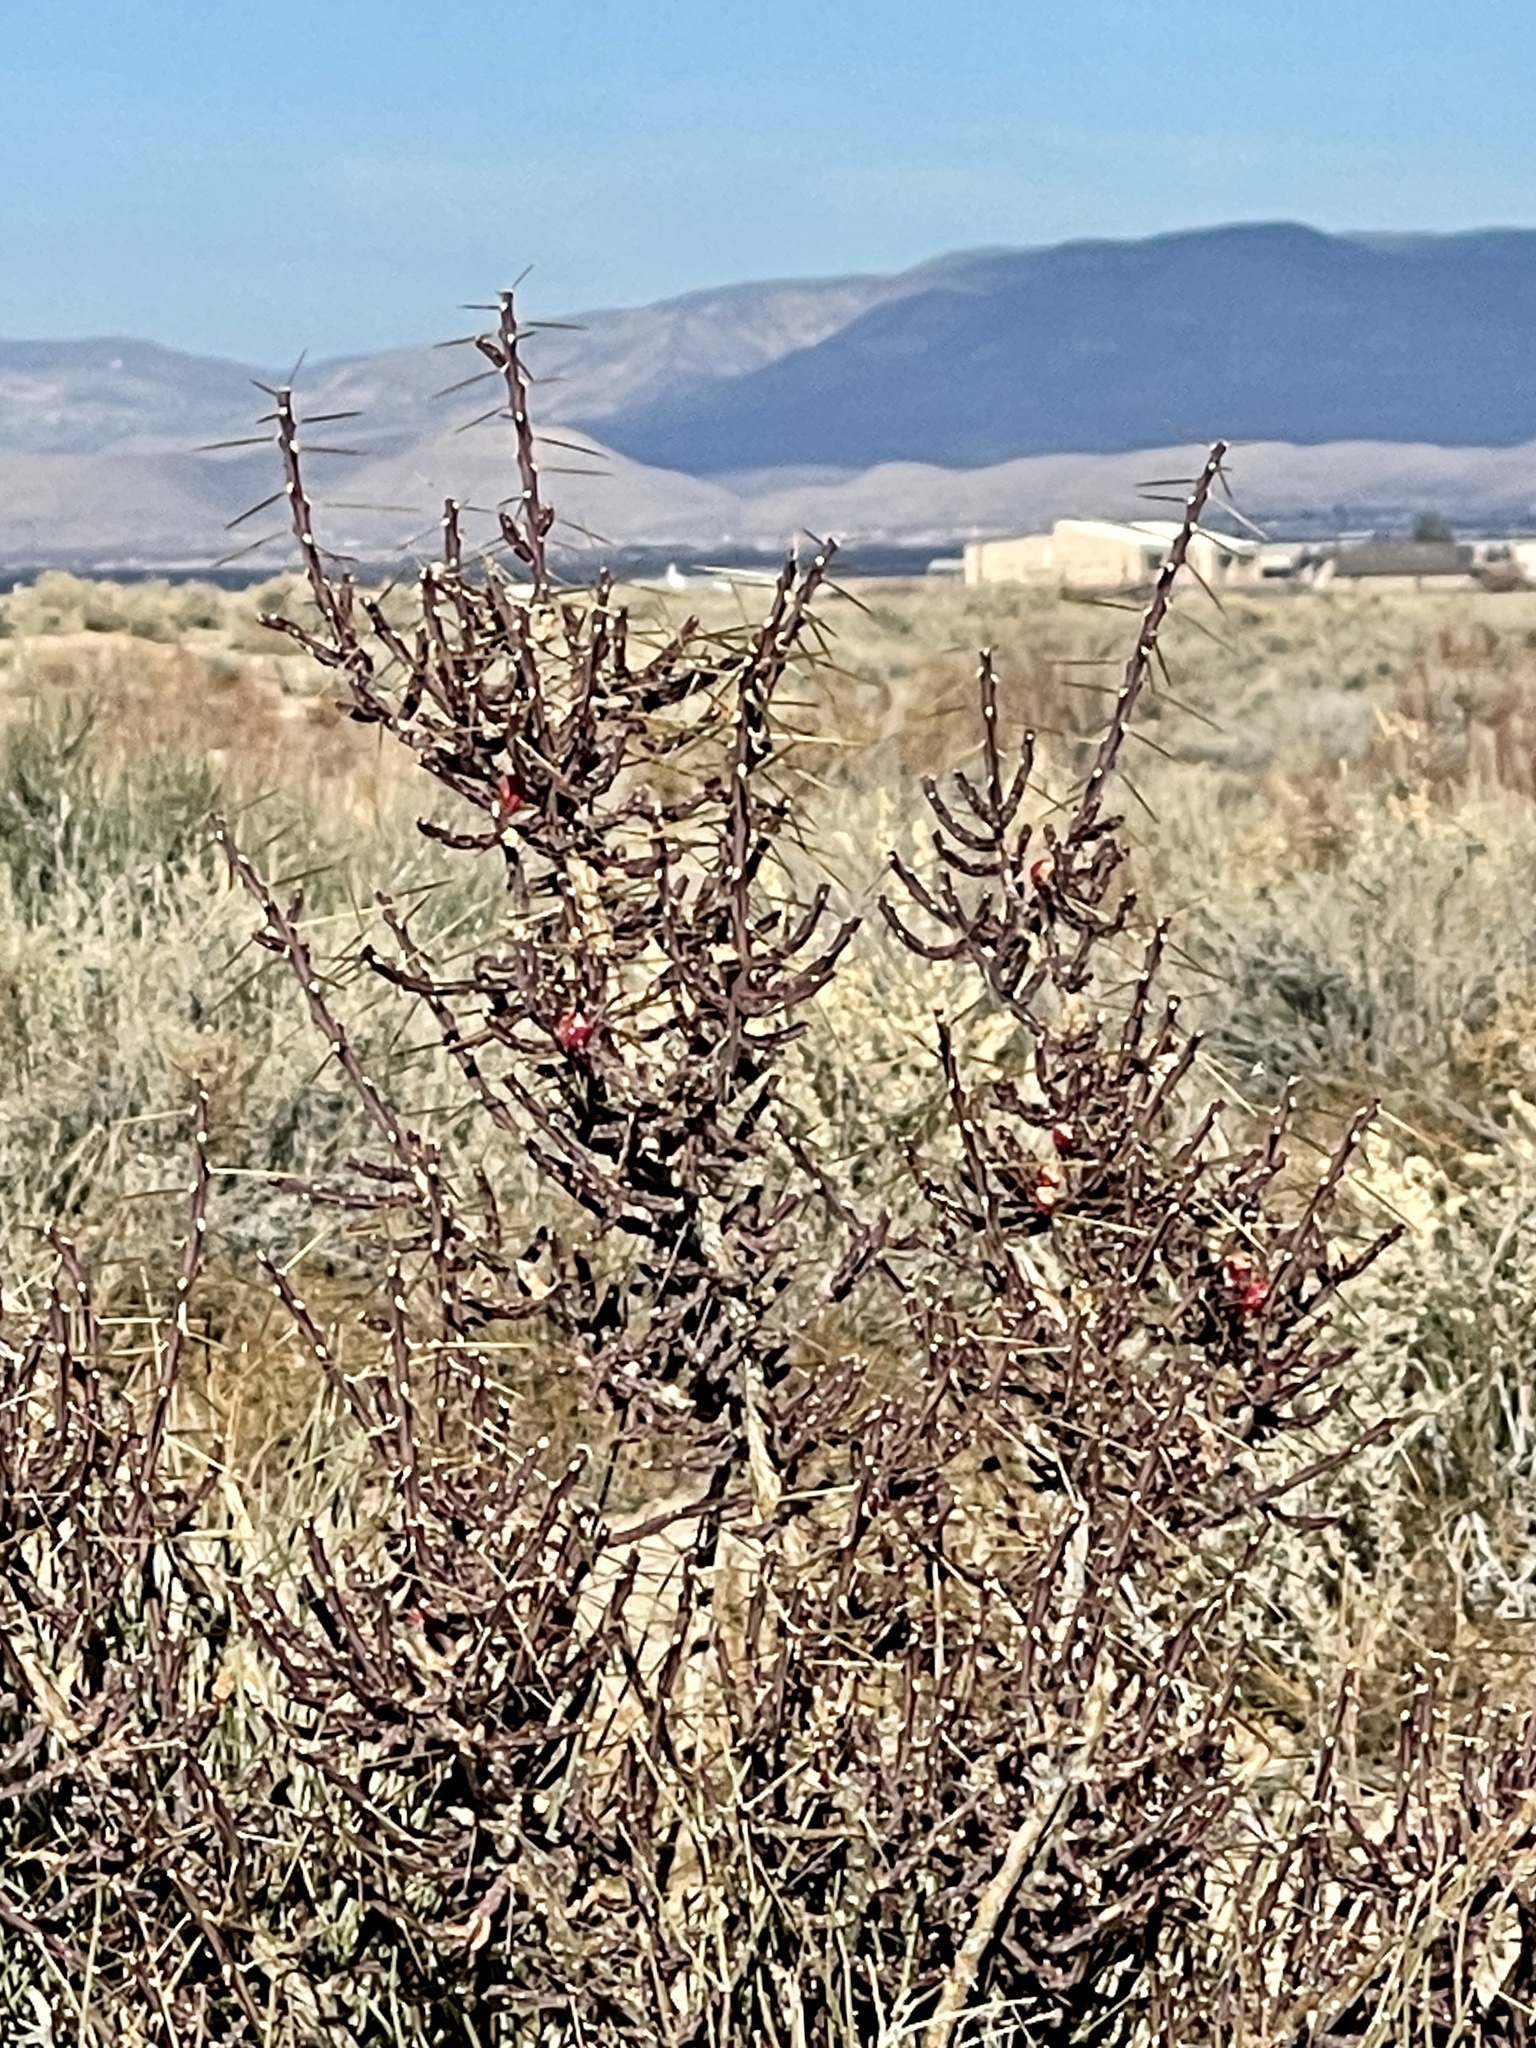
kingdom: Plantae
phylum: Tracheophyta
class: Magnoliopsida
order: Caryophyllales
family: Cactaceae
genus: Cylindropuntia
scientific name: Cylindropuntia leptocaulis
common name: Christmas cactus
